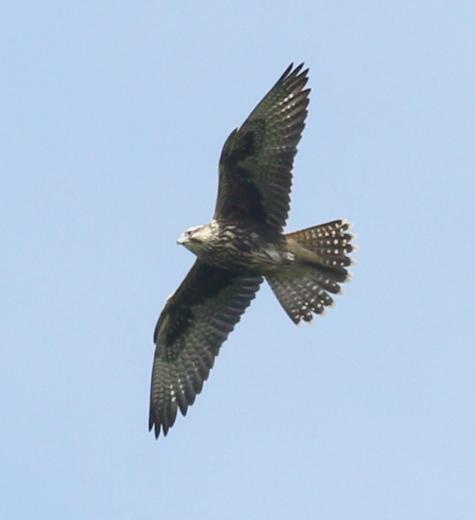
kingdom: Animalia
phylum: Chordata
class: Aves
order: Falconiformes
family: Falconidae
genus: Falco
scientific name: Falco cherrug
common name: Saker falcon
